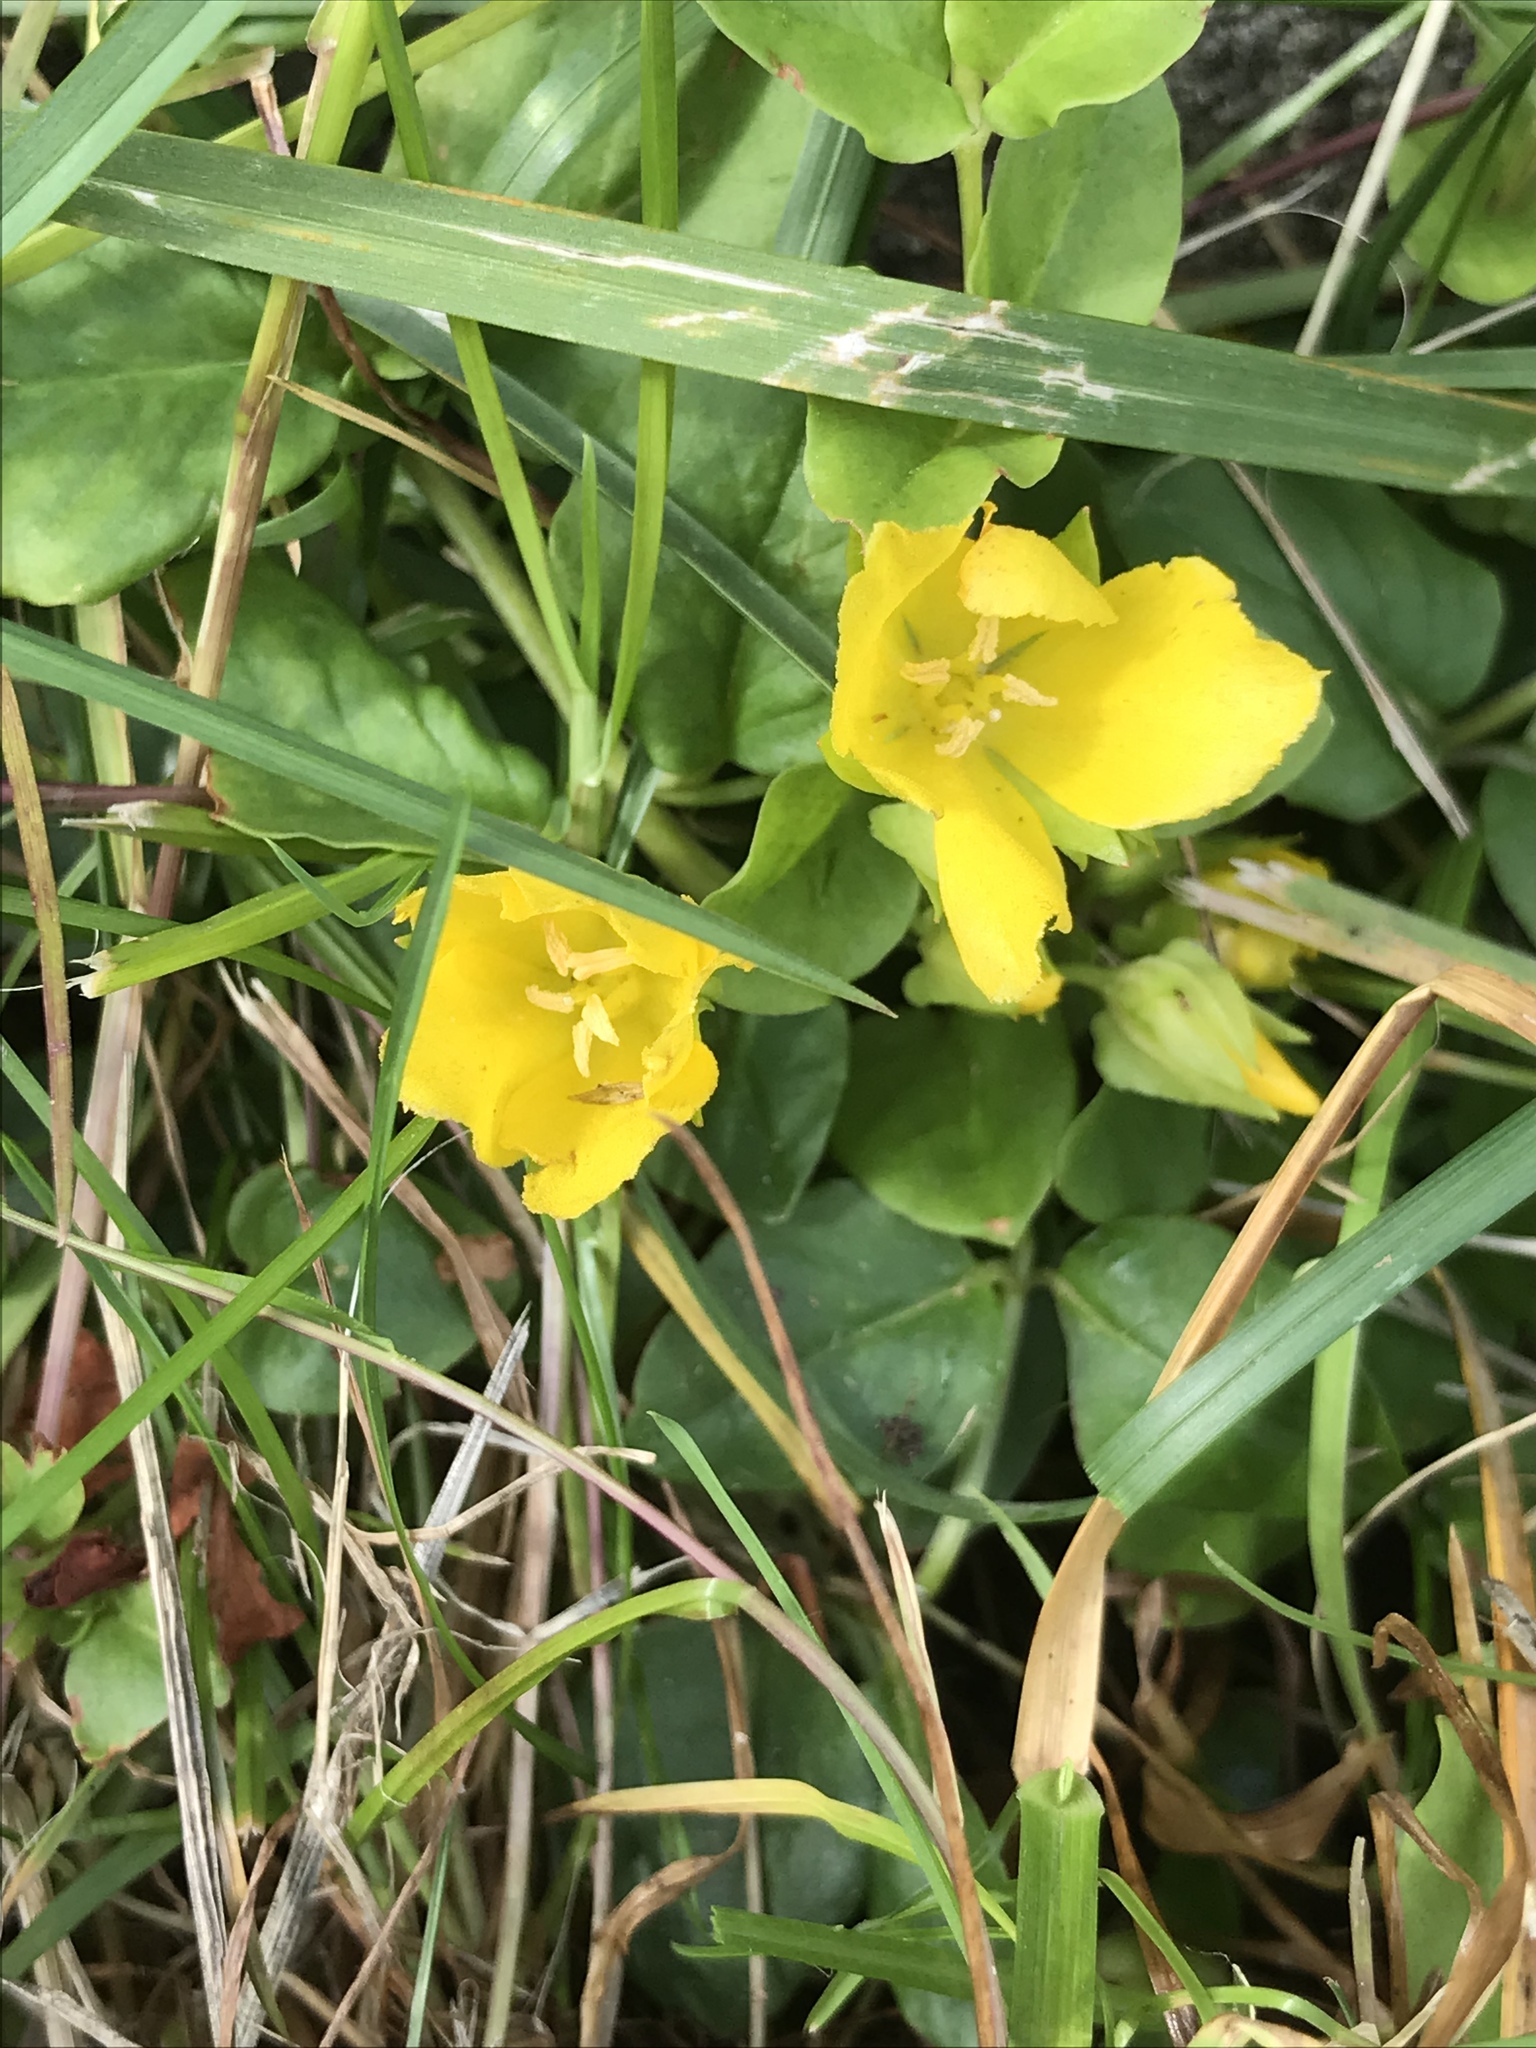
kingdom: Plantae
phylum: Tracheophyta
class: Magnoliopsida
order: Ericales
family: Primulaceae
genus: Lysimachia
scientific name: Lysimachia nummularia
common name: Moneywort
